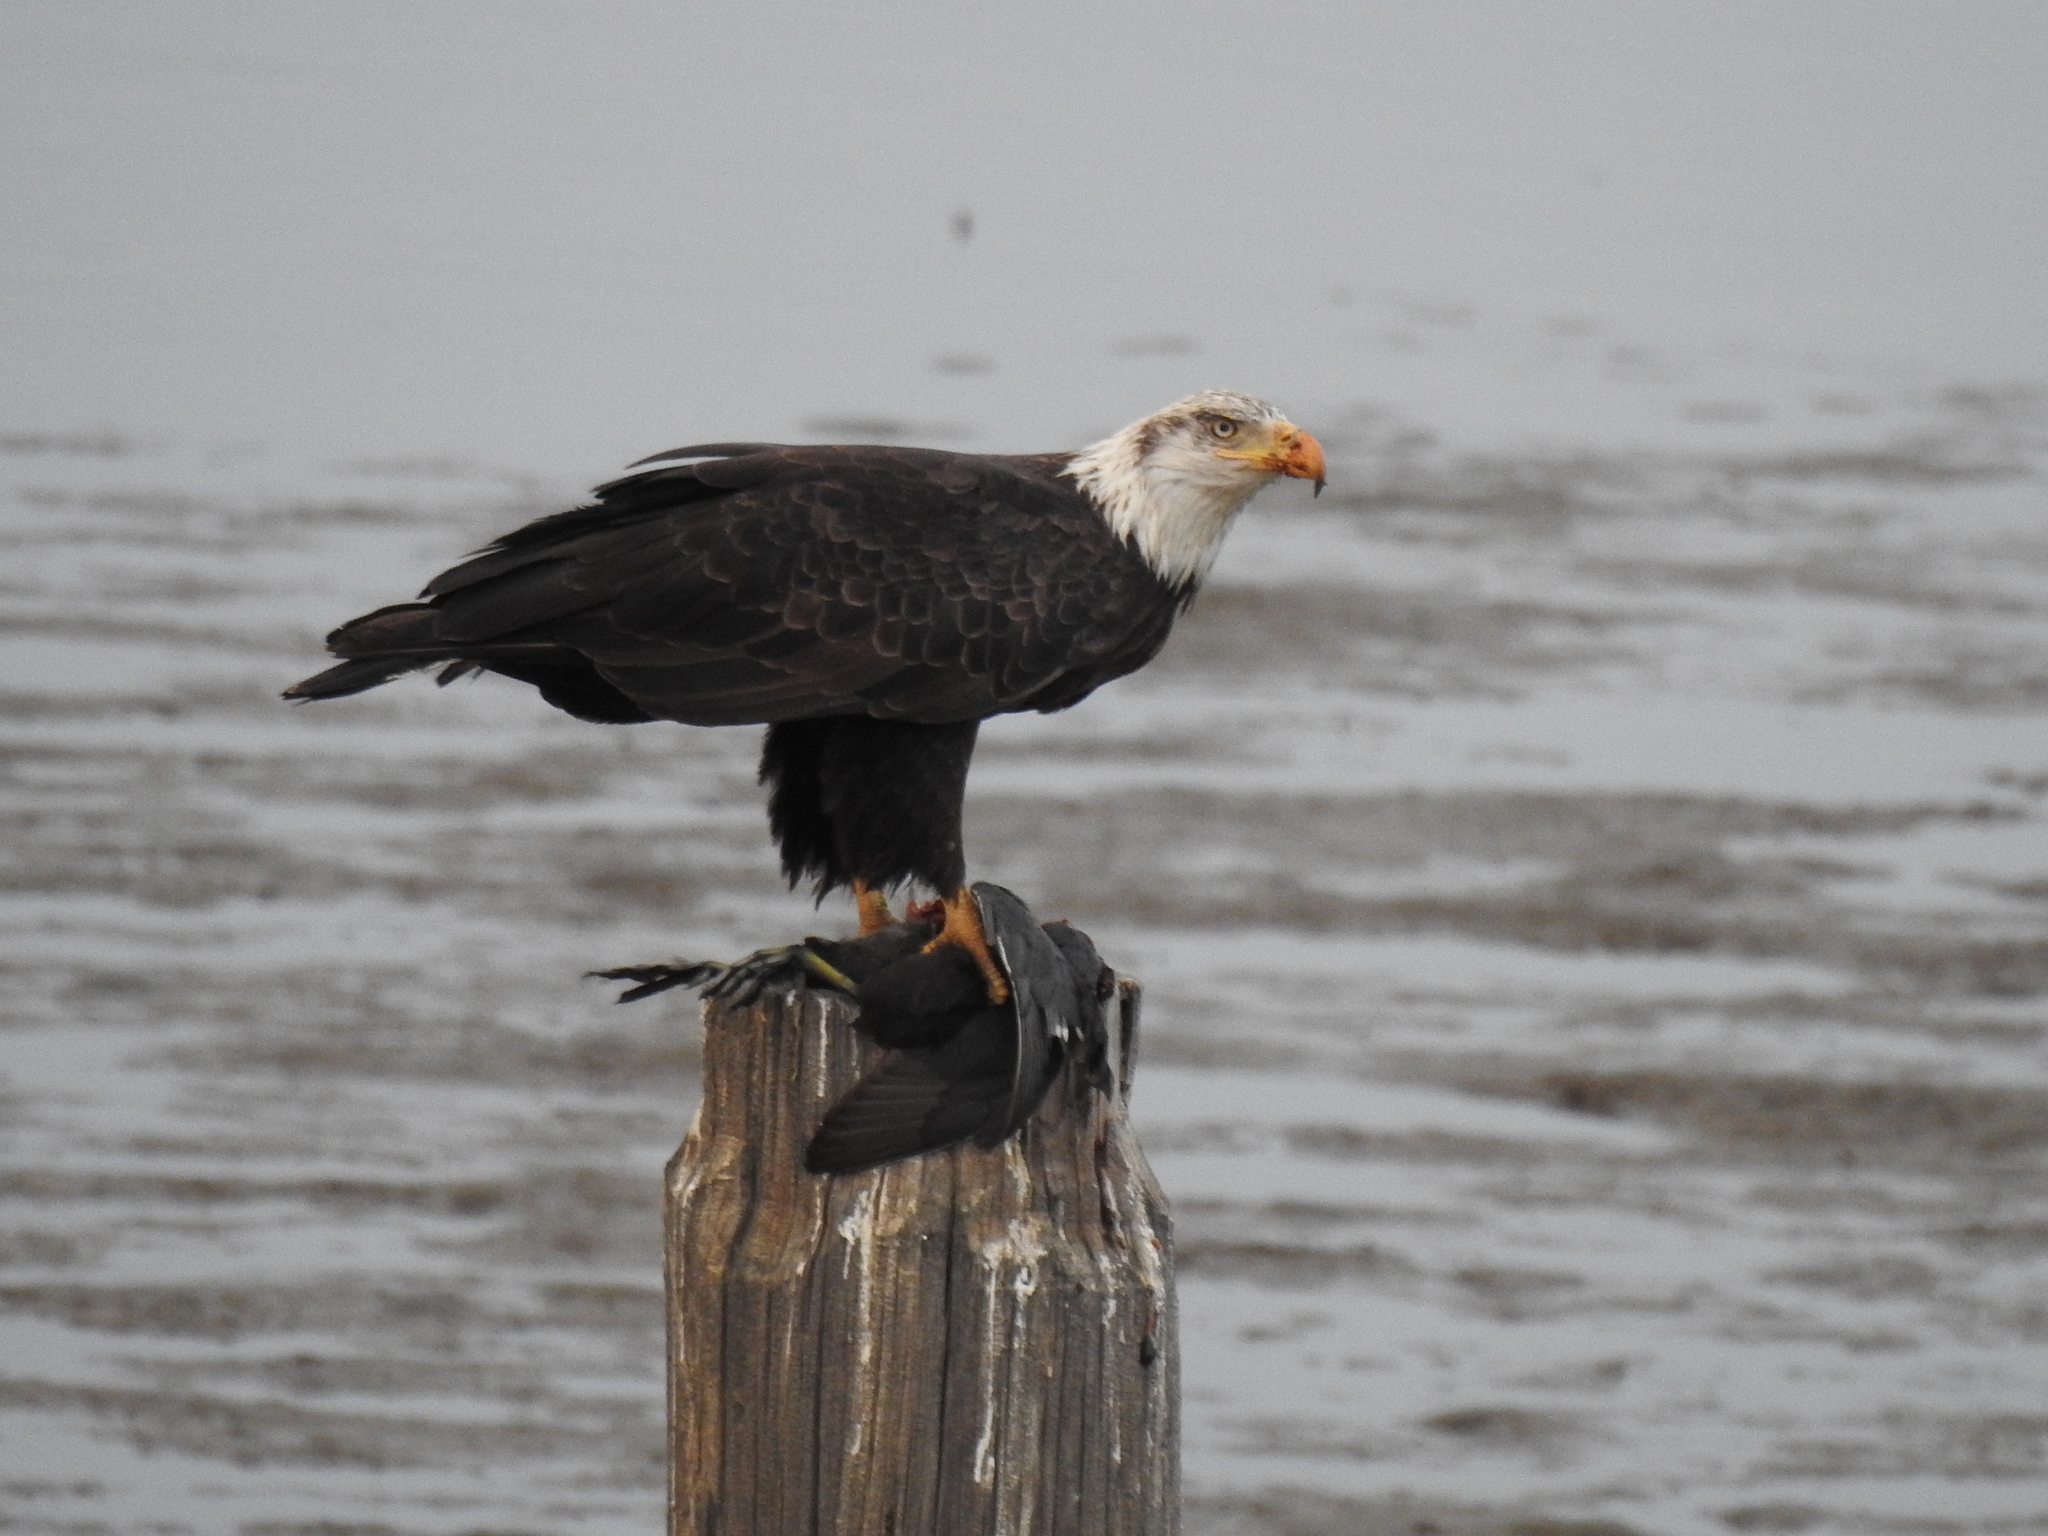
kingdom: Animalia
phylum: Chordata
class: Aves
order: Gruiformes
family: Rallidae
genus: Fulica
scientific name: Fulica americana
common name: American coot
